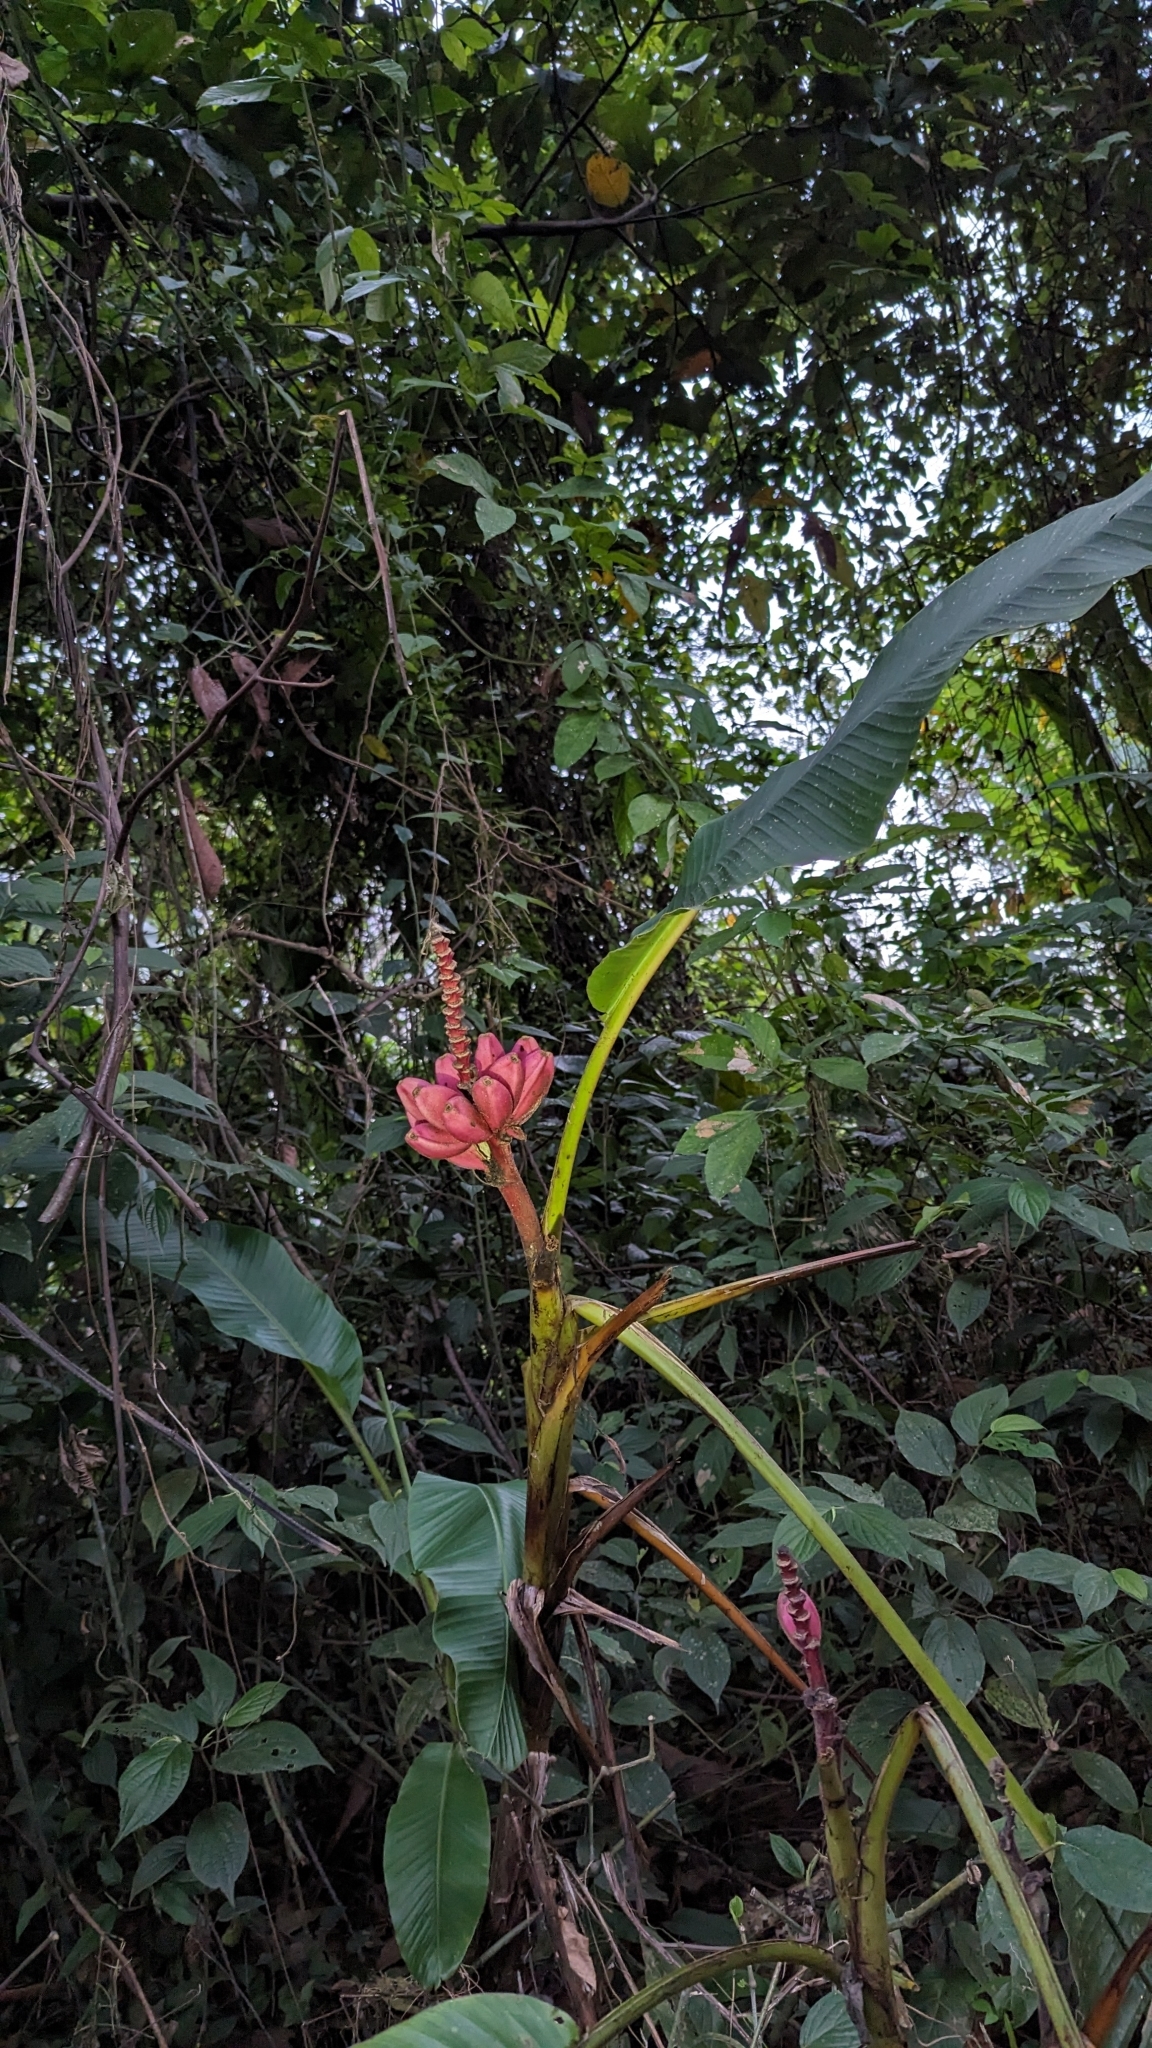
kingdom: Plantae
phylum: Tracheophyta
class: Liliopsida
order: Zingiberales
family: Musaceae
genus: Musa
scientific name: Musa velutina
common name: Pink velvet banana
